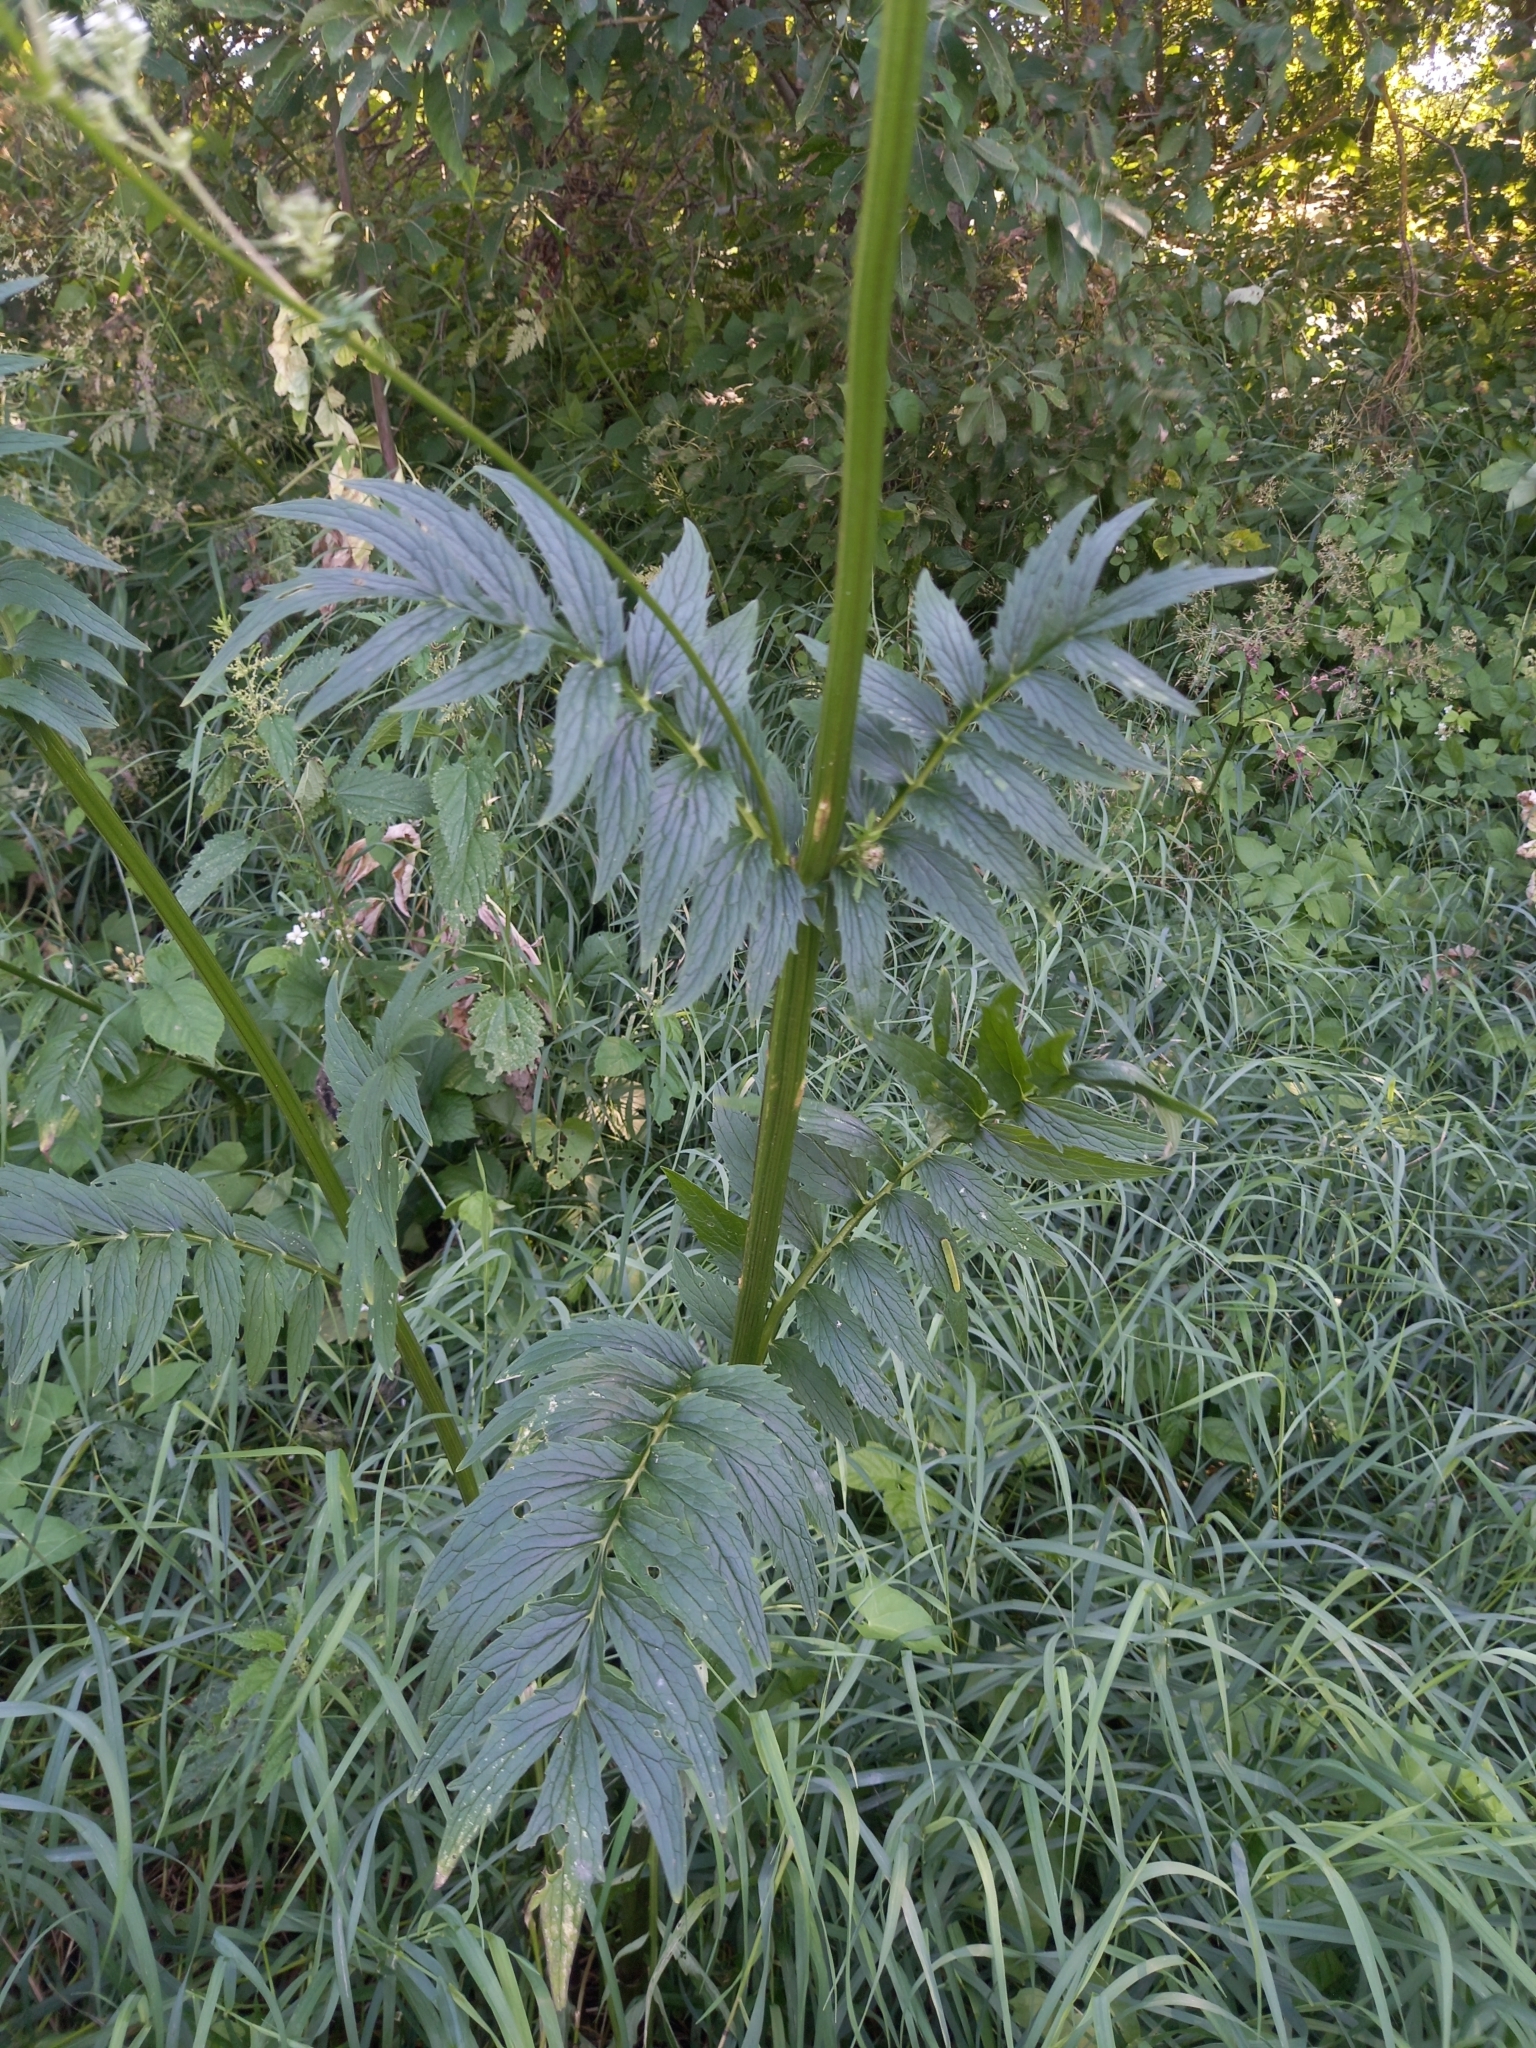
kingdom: Plantae
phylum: Tracheophyta
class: Magnoliopsida
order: Dipsacales
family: Caprifoliaceae
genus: Valeriana
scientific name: Valeriana officinalis
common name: Common valerian
